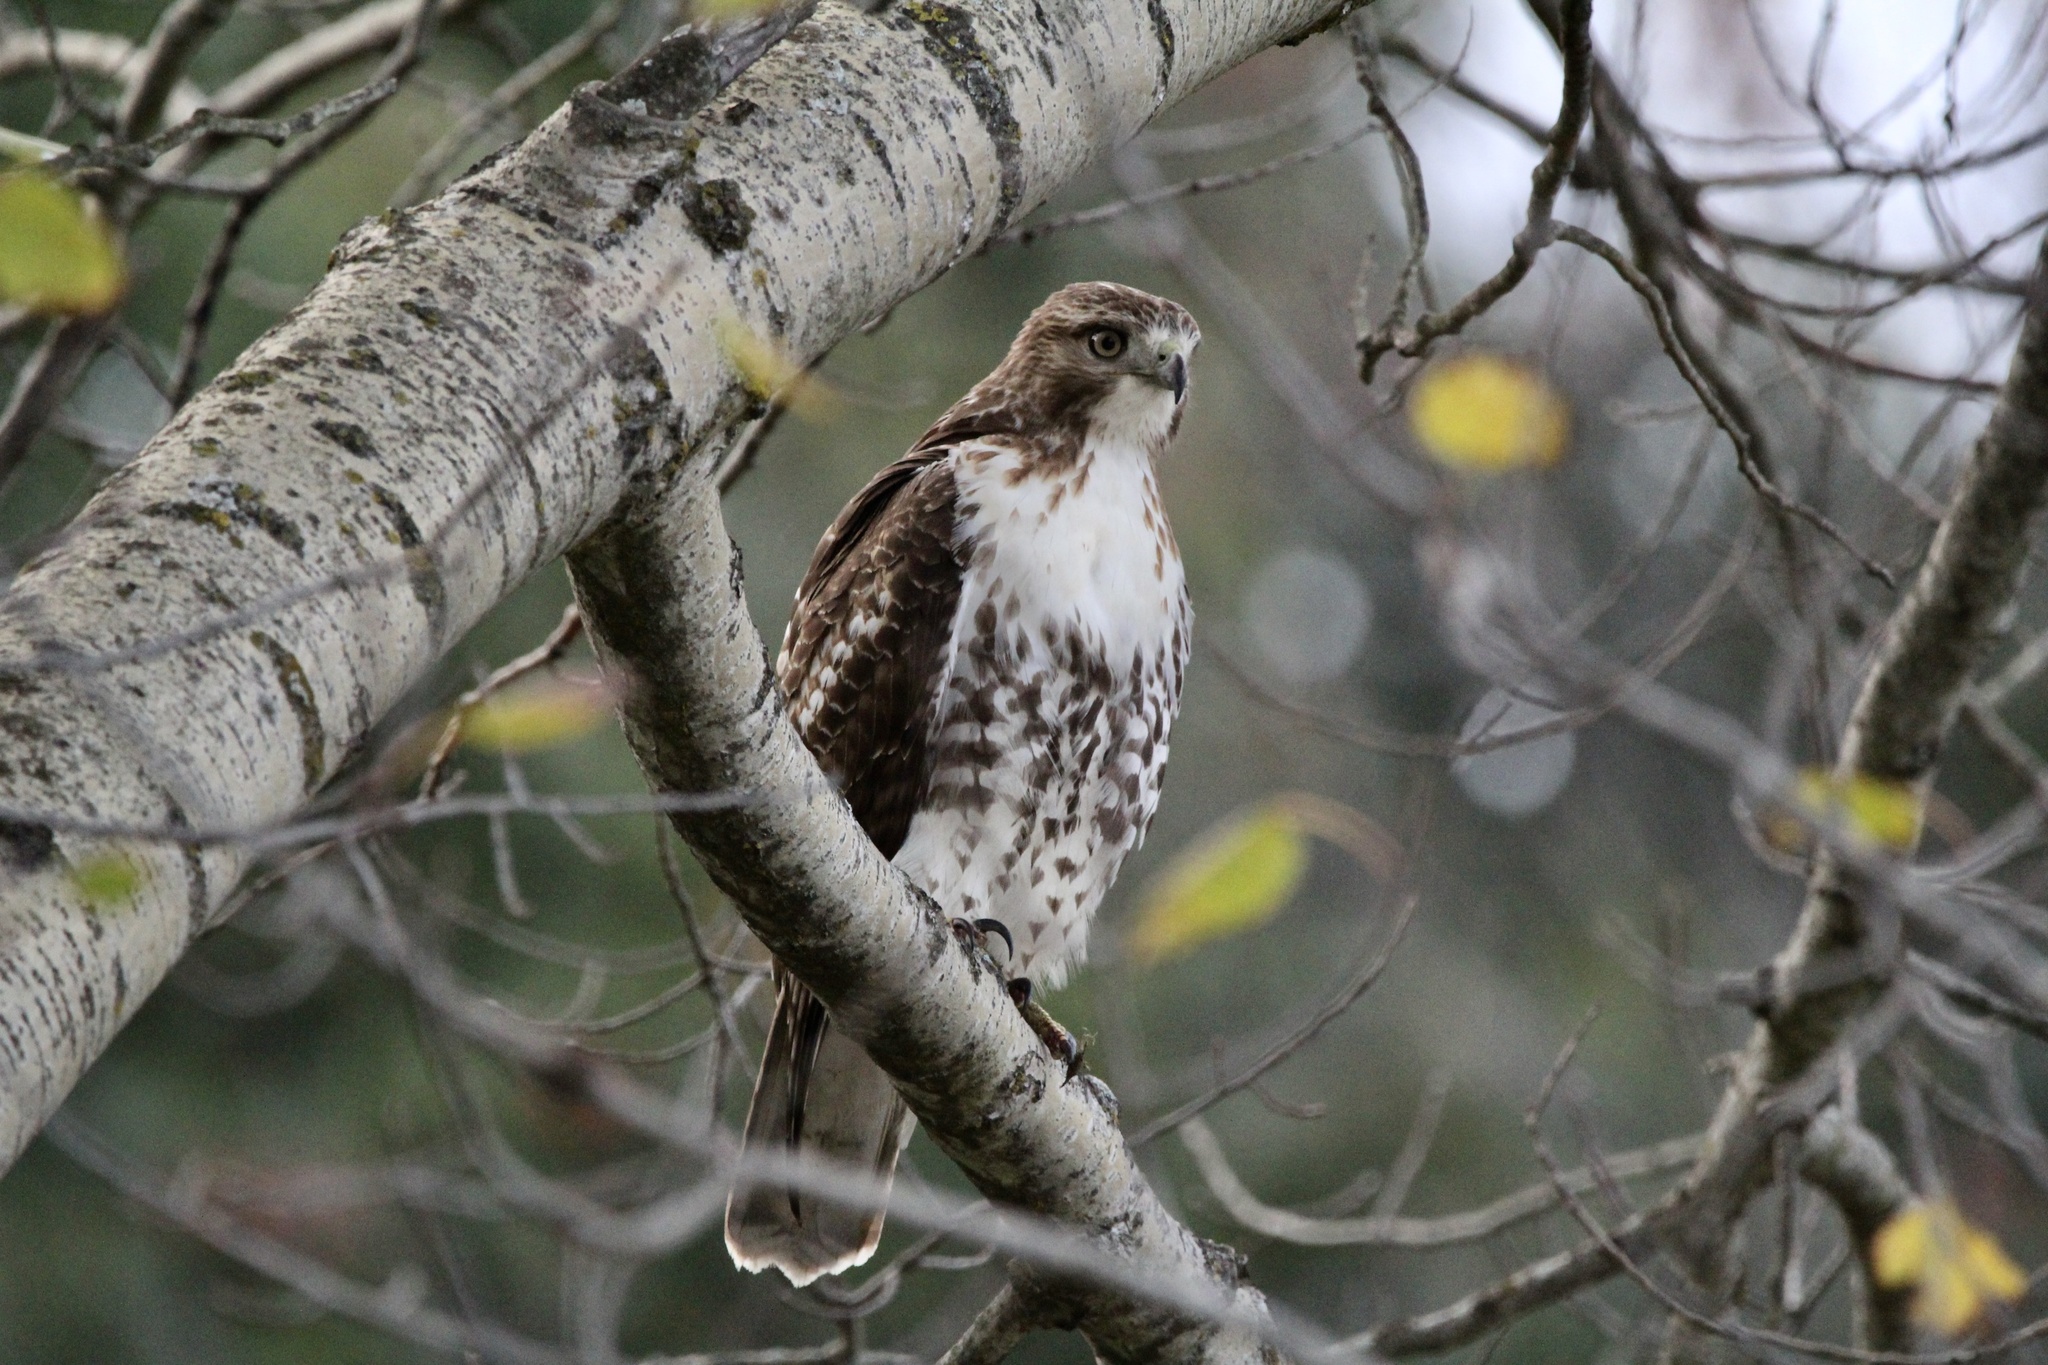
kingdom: Animalia
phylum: Chordata
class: Aves
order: Accipitriformes
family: Accipitridae
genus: Buteo
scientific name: Buteo jamaicensis
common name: Red-tailed hawk
